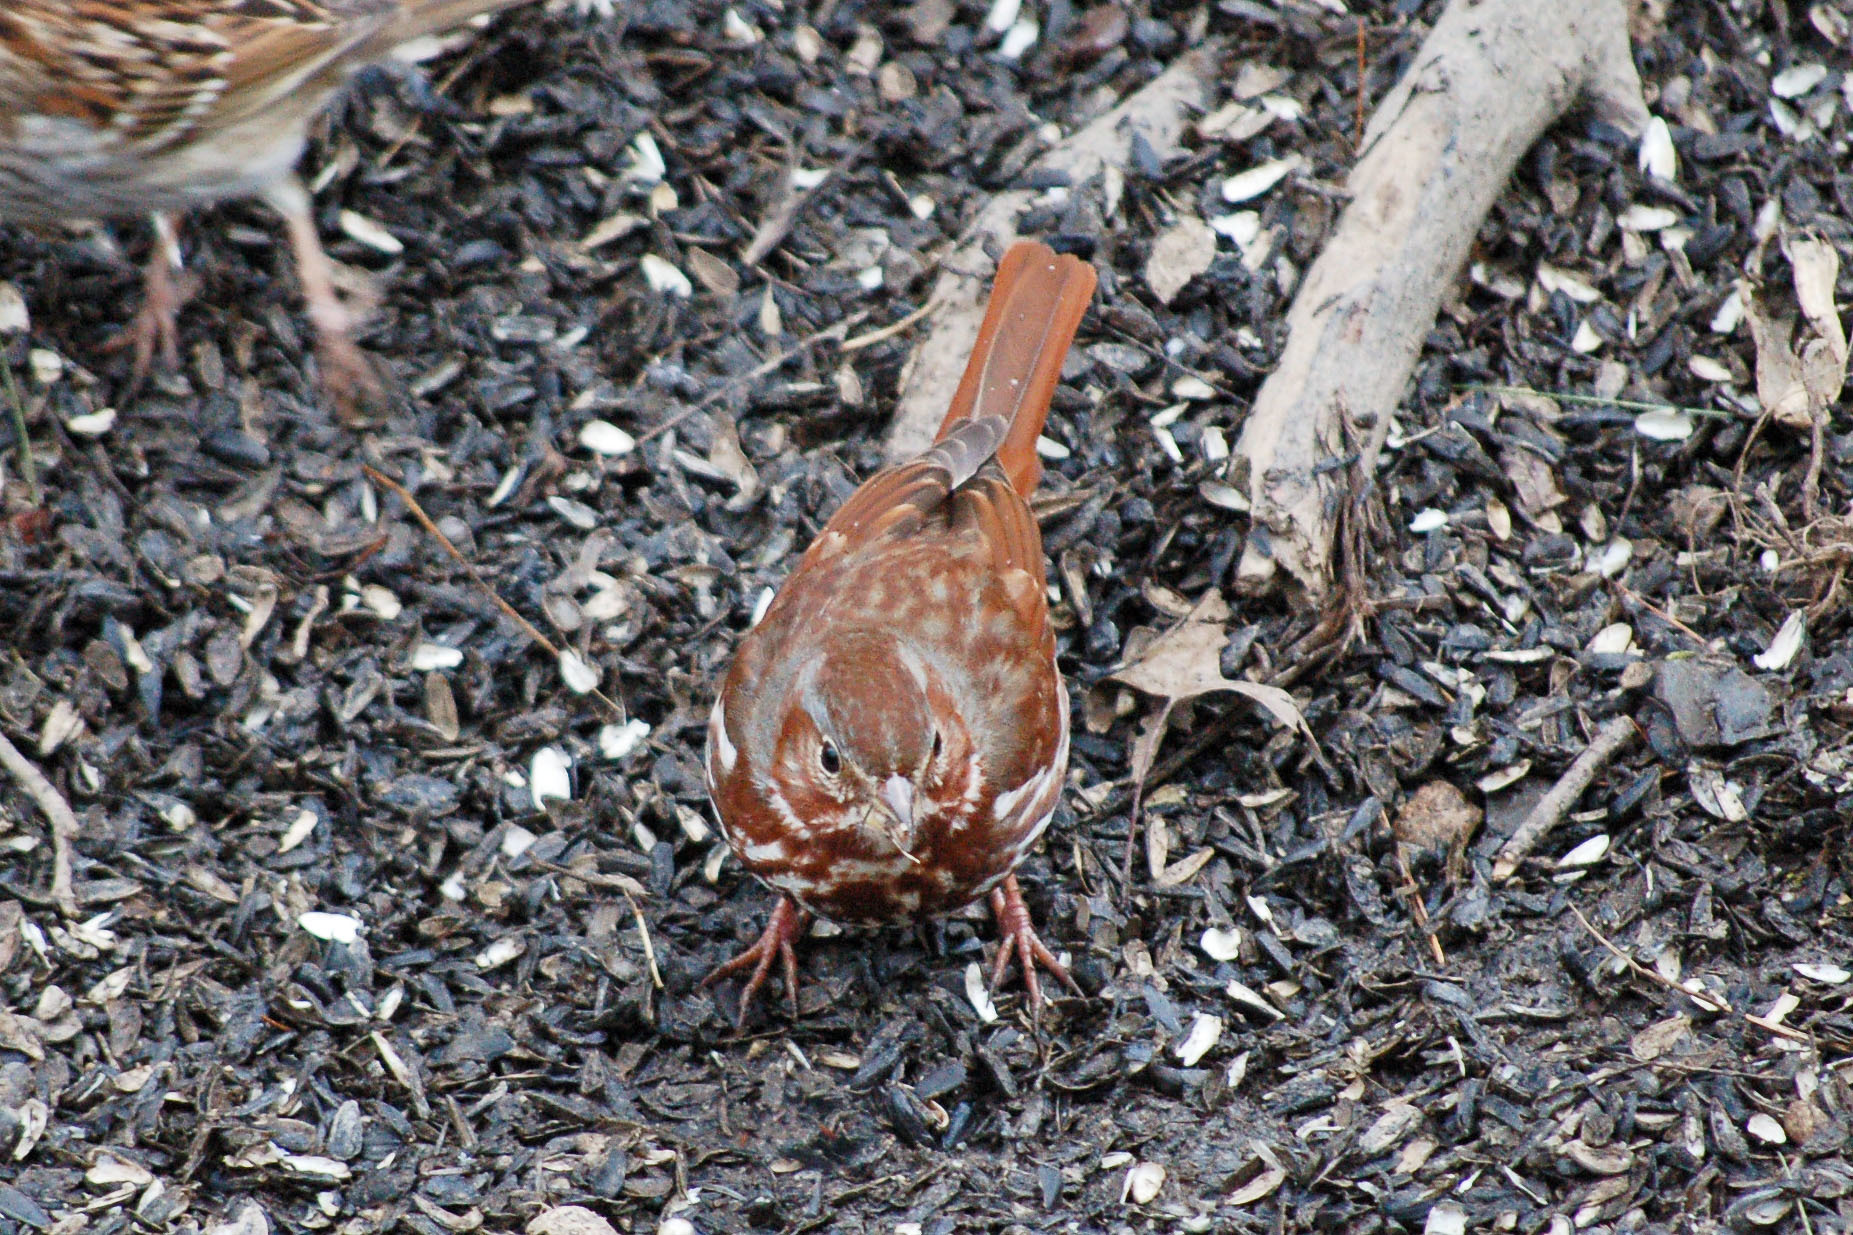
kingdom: Animalia
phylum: Chordata
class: Aves
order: Passeriformes
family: Passerellidae
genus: Passerella
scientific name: Passerella iliaca
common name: Fox sparrow
